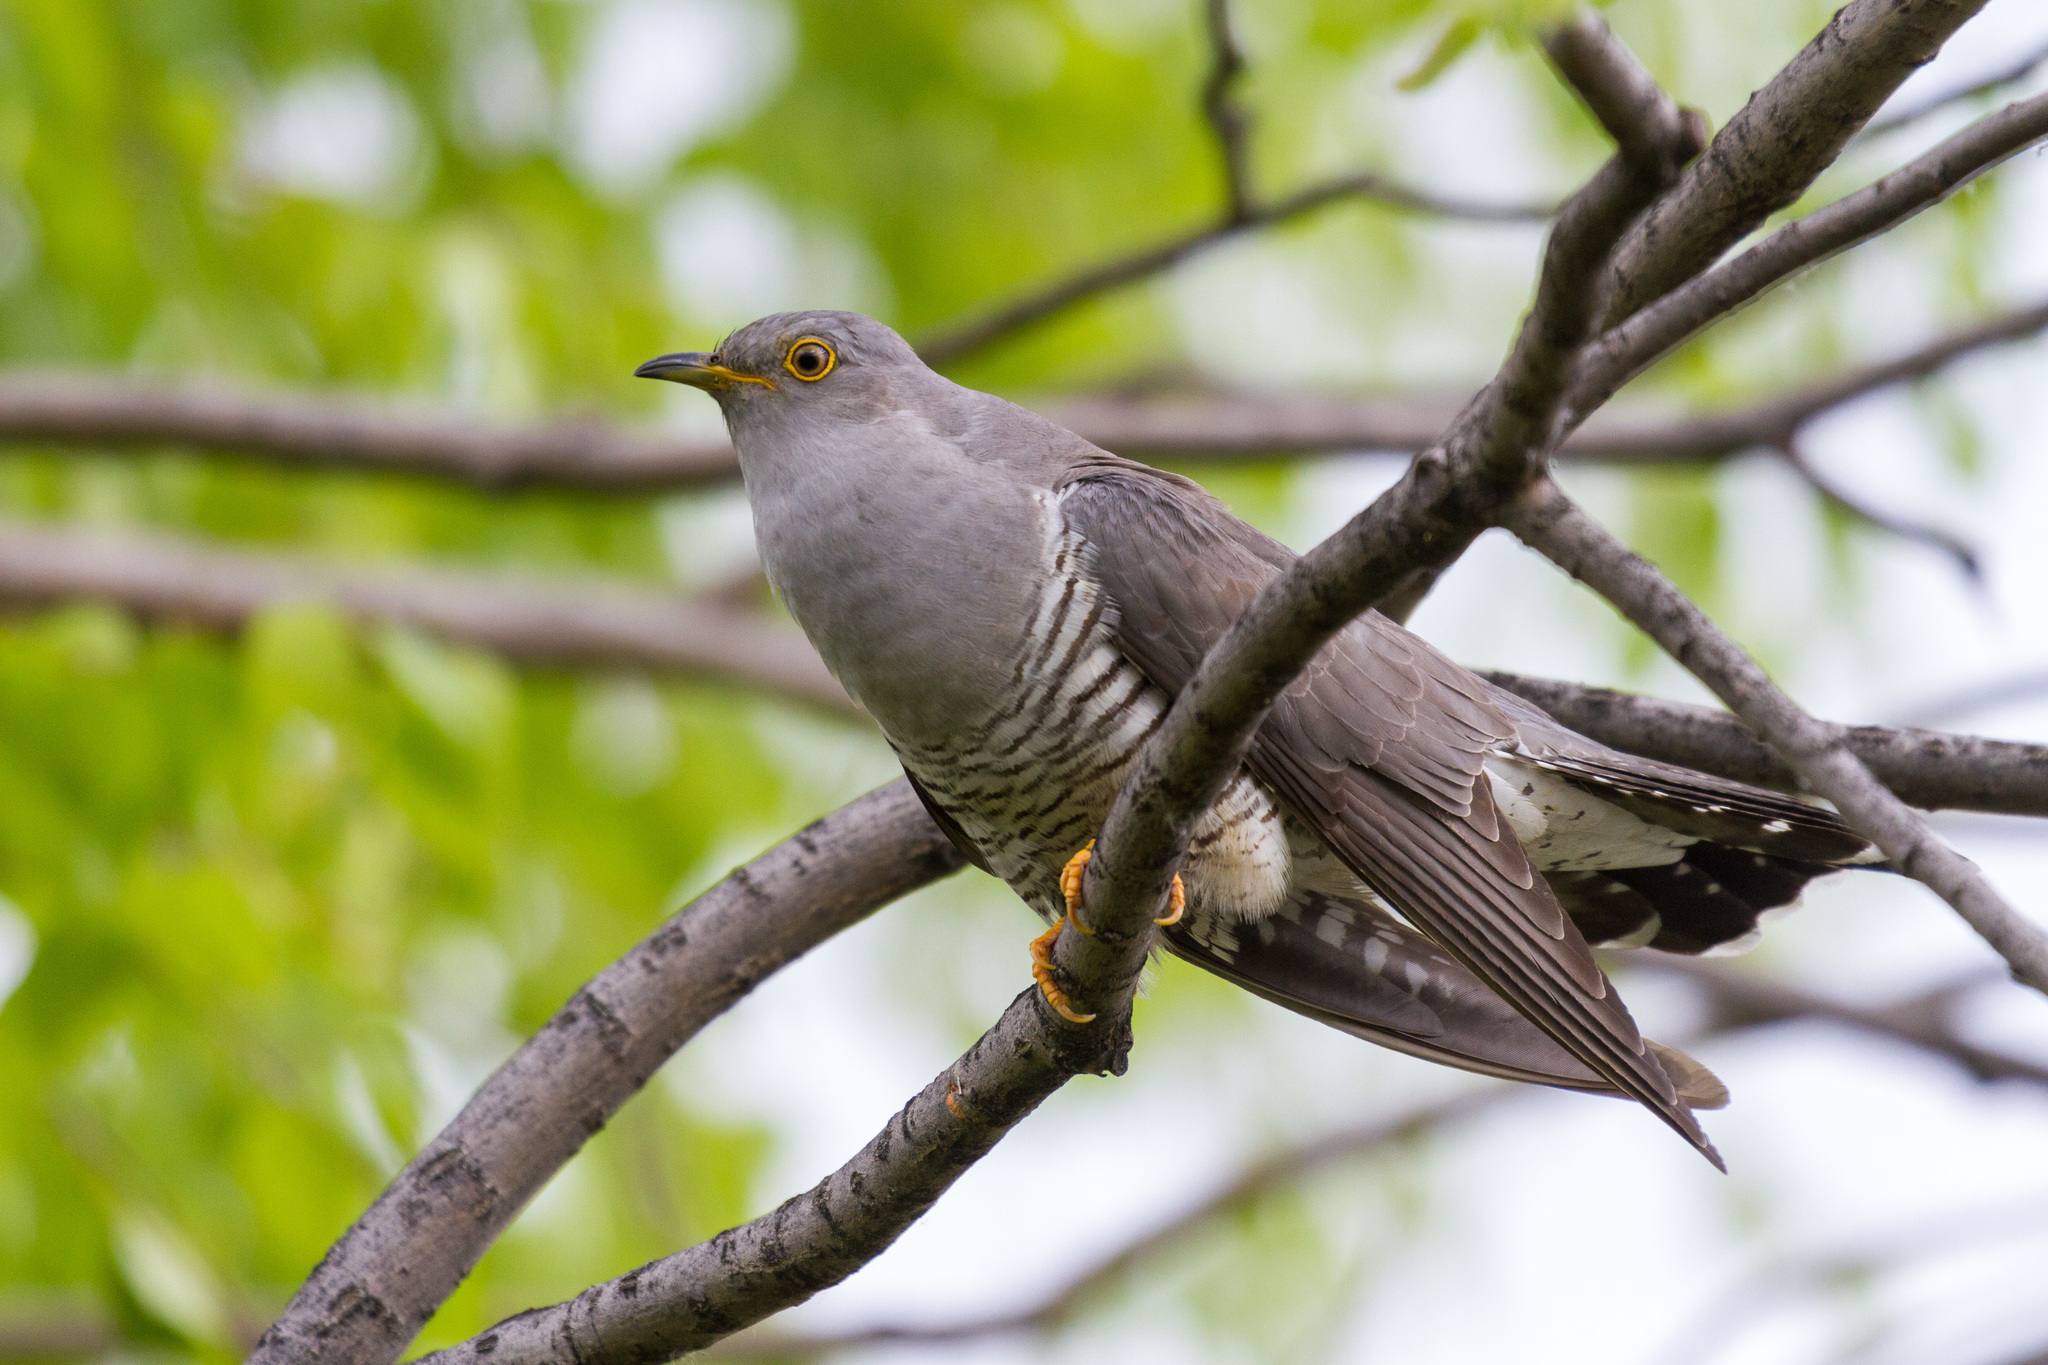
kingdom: Animalia
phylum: Chordata
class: Aves
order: Cuculiformes
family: Cuculidae
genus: Cuculus
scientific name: Cuculus canorus
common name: Common cuckoo
